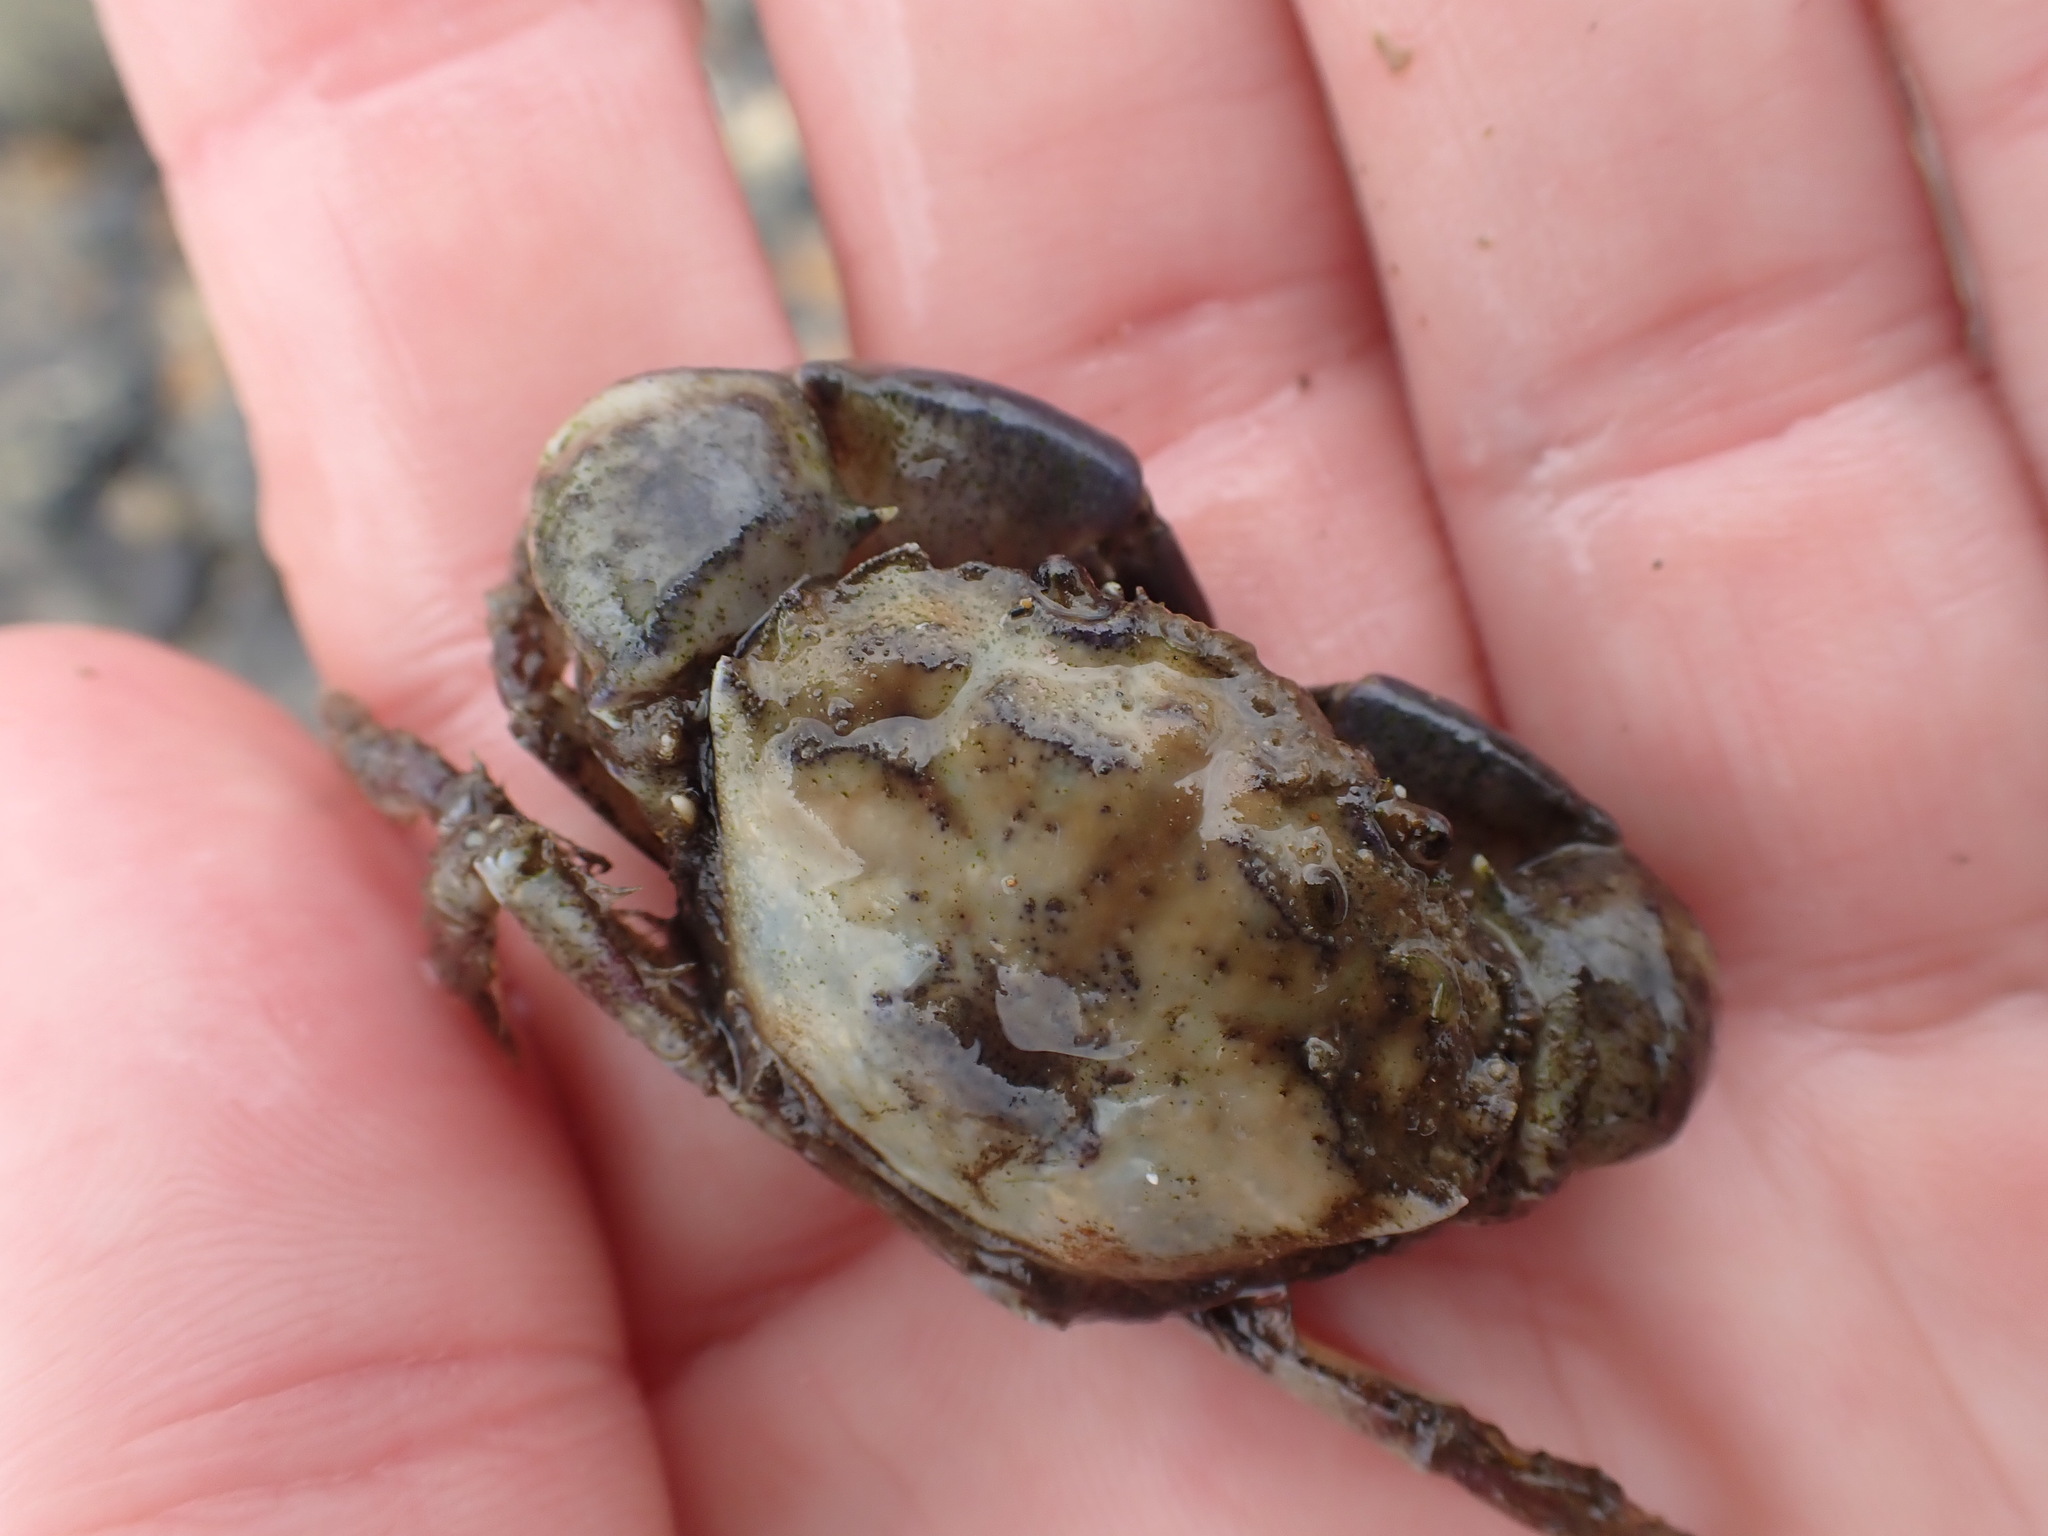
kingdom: Animalia
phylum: Arthropoda
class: Malacostraca
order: Decapoda
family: Pilumnidae
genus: Pilumnopeus
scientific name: Pilumnopeus serratifrons
